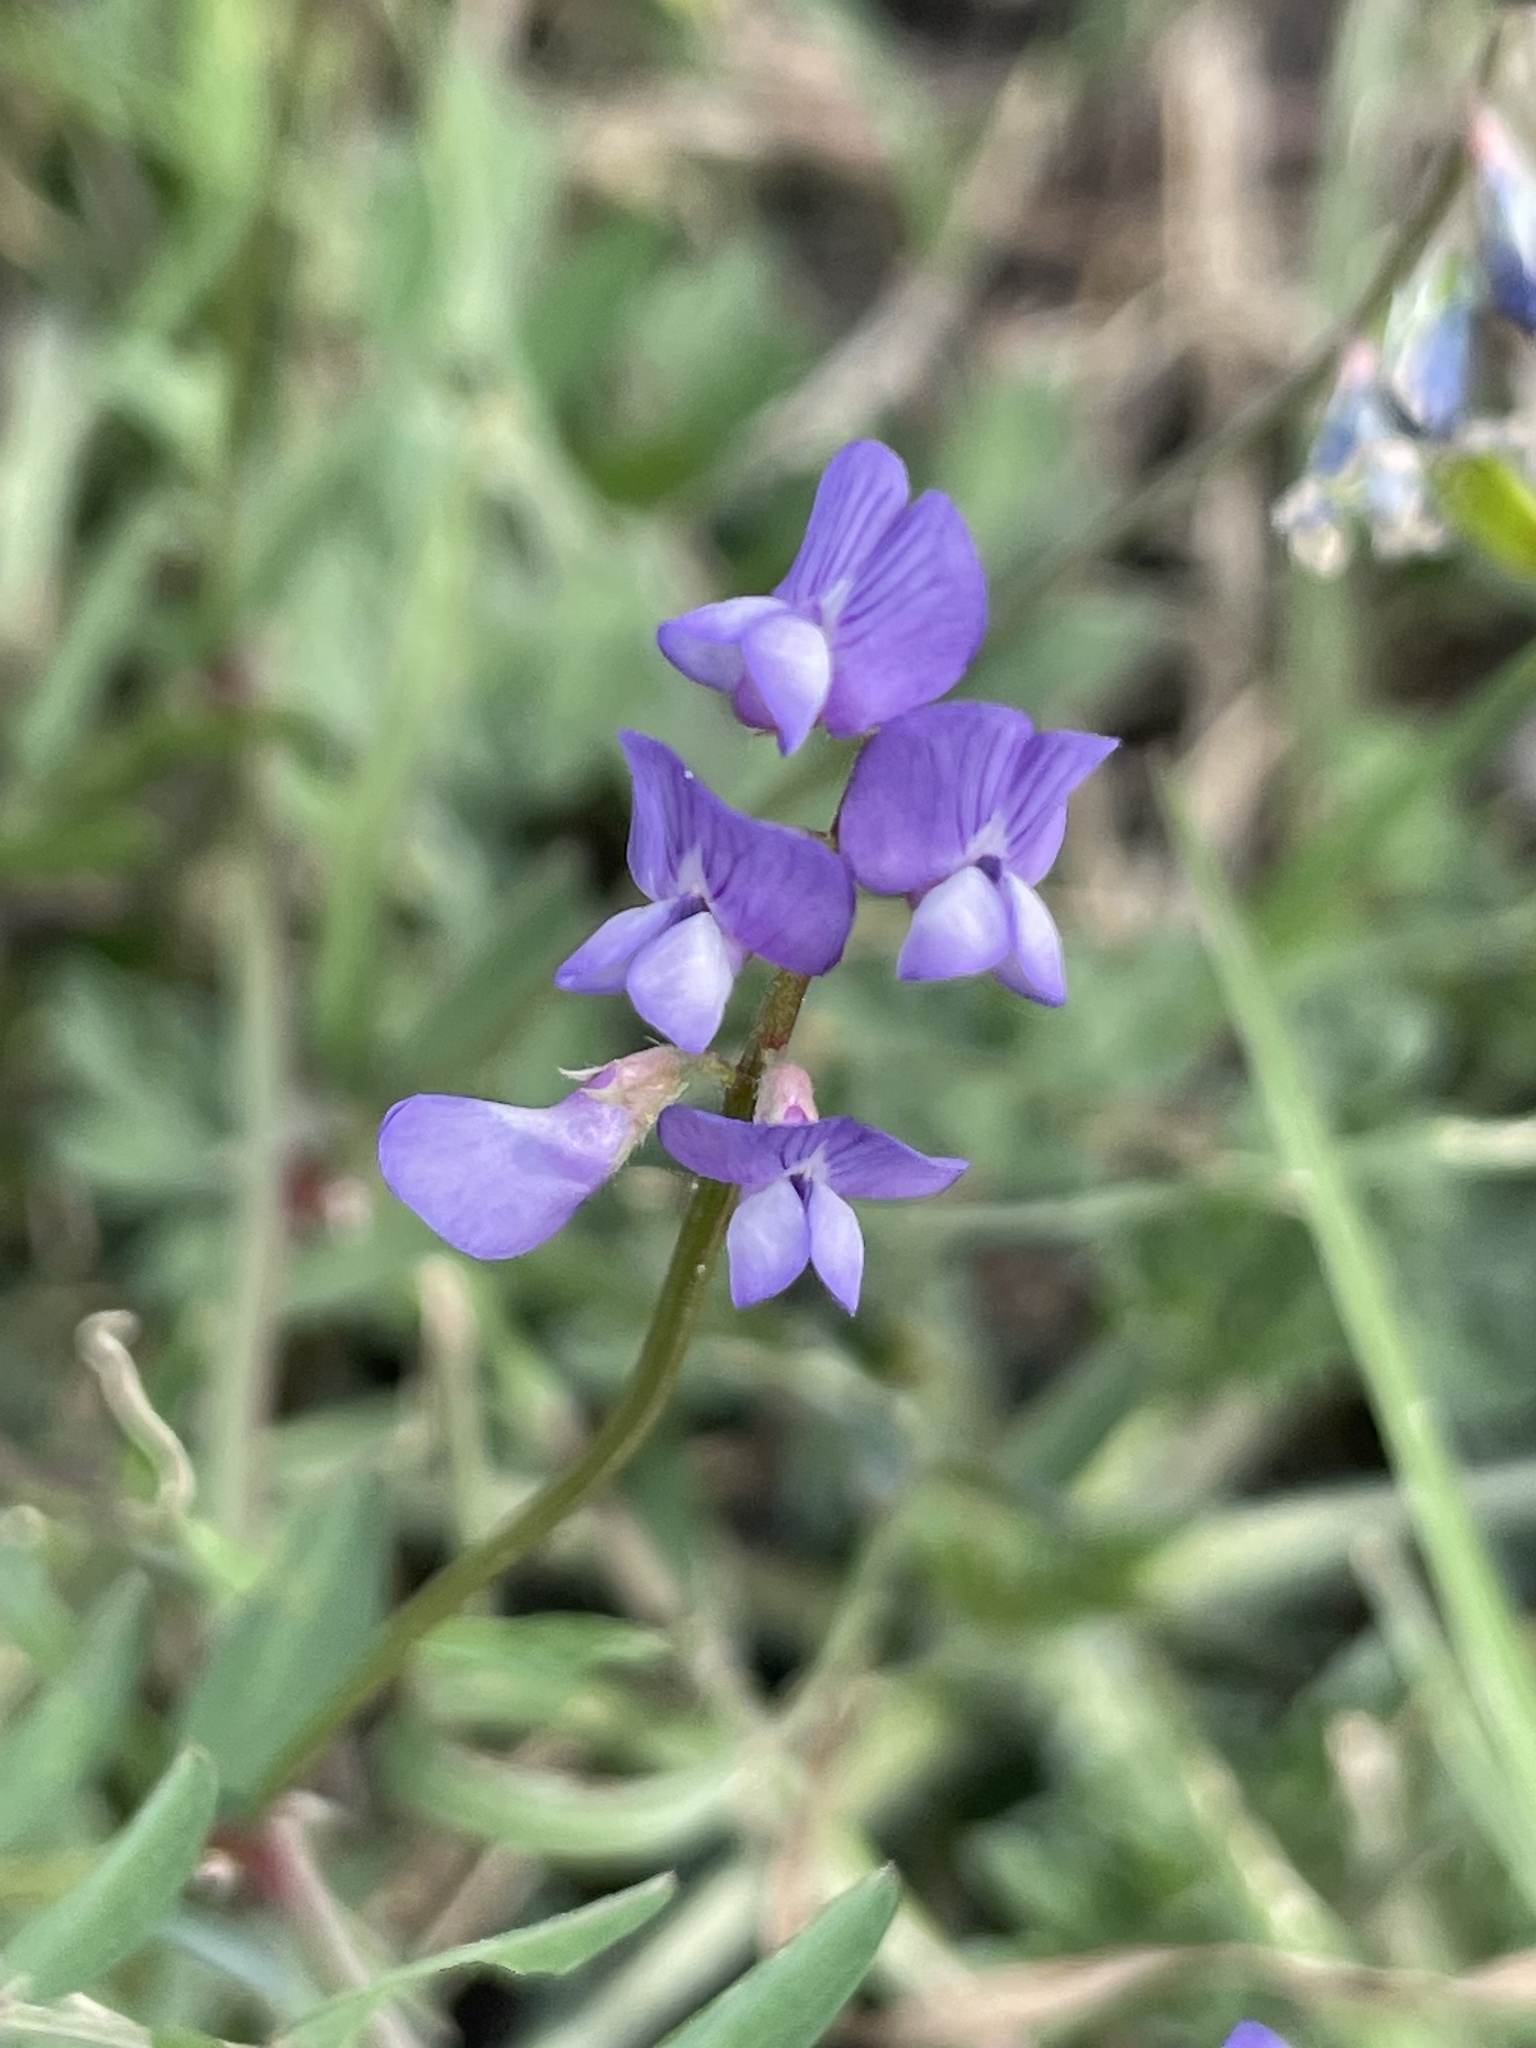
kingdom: Plantae
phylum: Tracheophyta
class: Magnoliopsida
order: Fabales
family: Fabaceae
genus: Vicia
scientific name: Vicia ludoviciana
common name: Louisiana vetch
